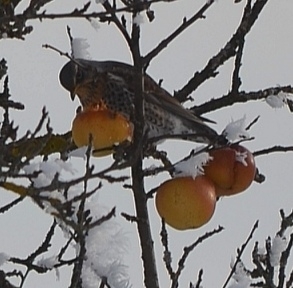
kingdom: Animalia
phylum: Chordata
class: Aves
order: Passeriformes
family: Turdidae
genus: Turdus
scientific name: Turdus pilaris
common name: Fieldfare
